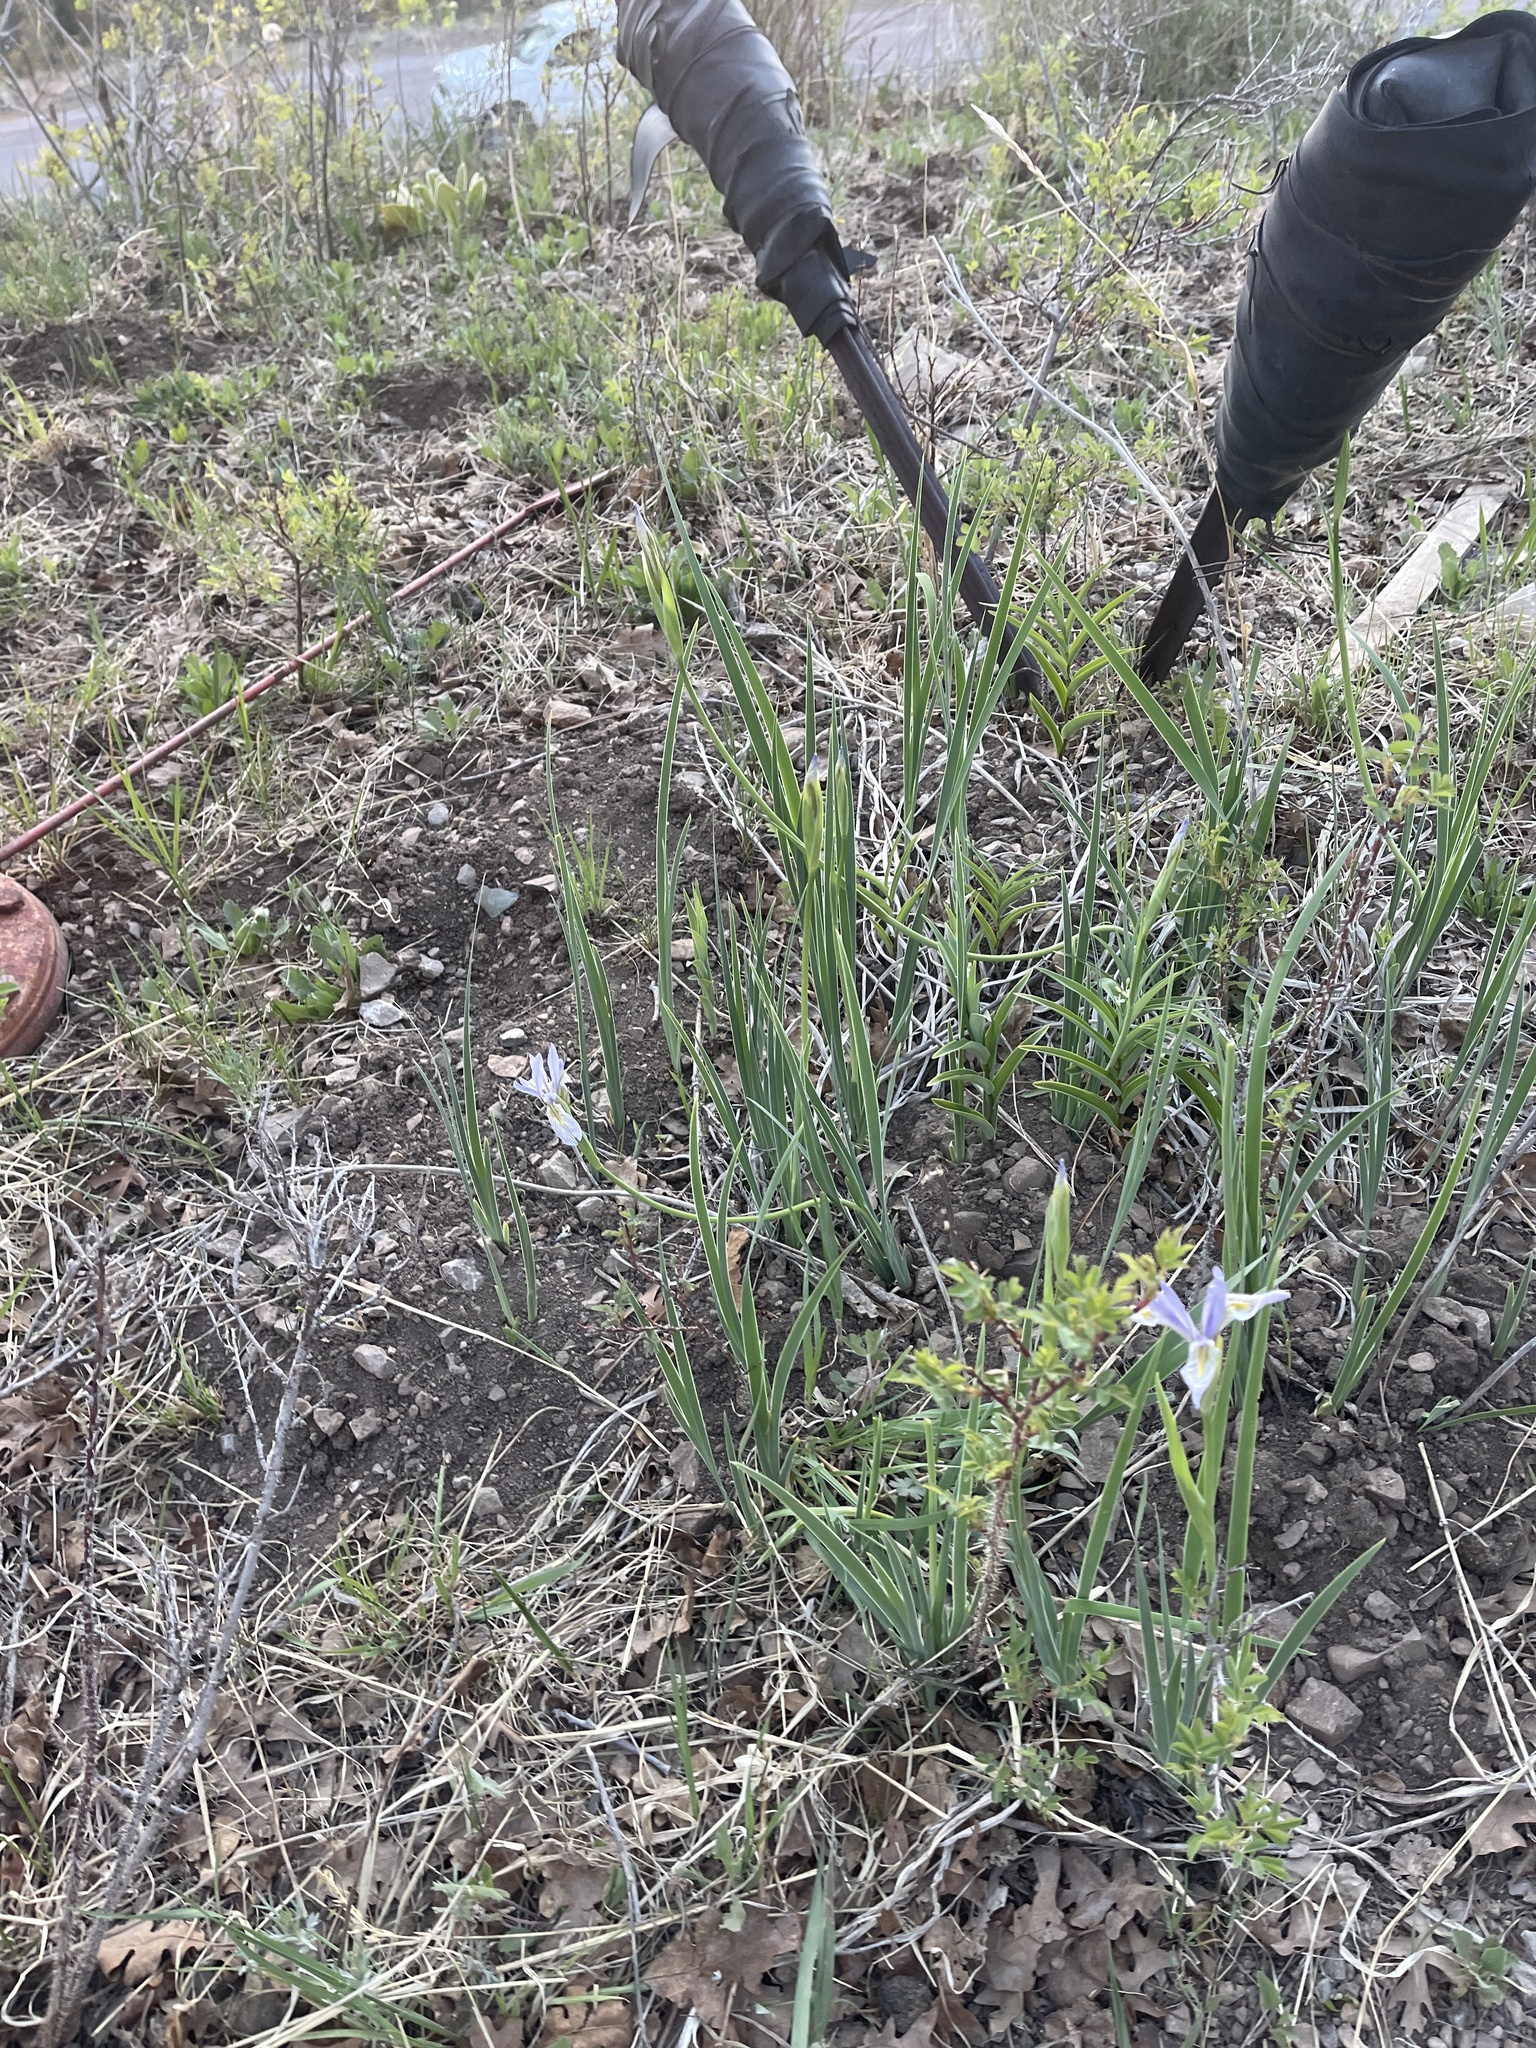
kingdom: Plantae
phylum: Tracheophyta
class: Liliopsida
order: Asparagales
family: Iridaceae
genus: Iris
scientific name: Iris missouriensis
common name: Rocky mountain iris
